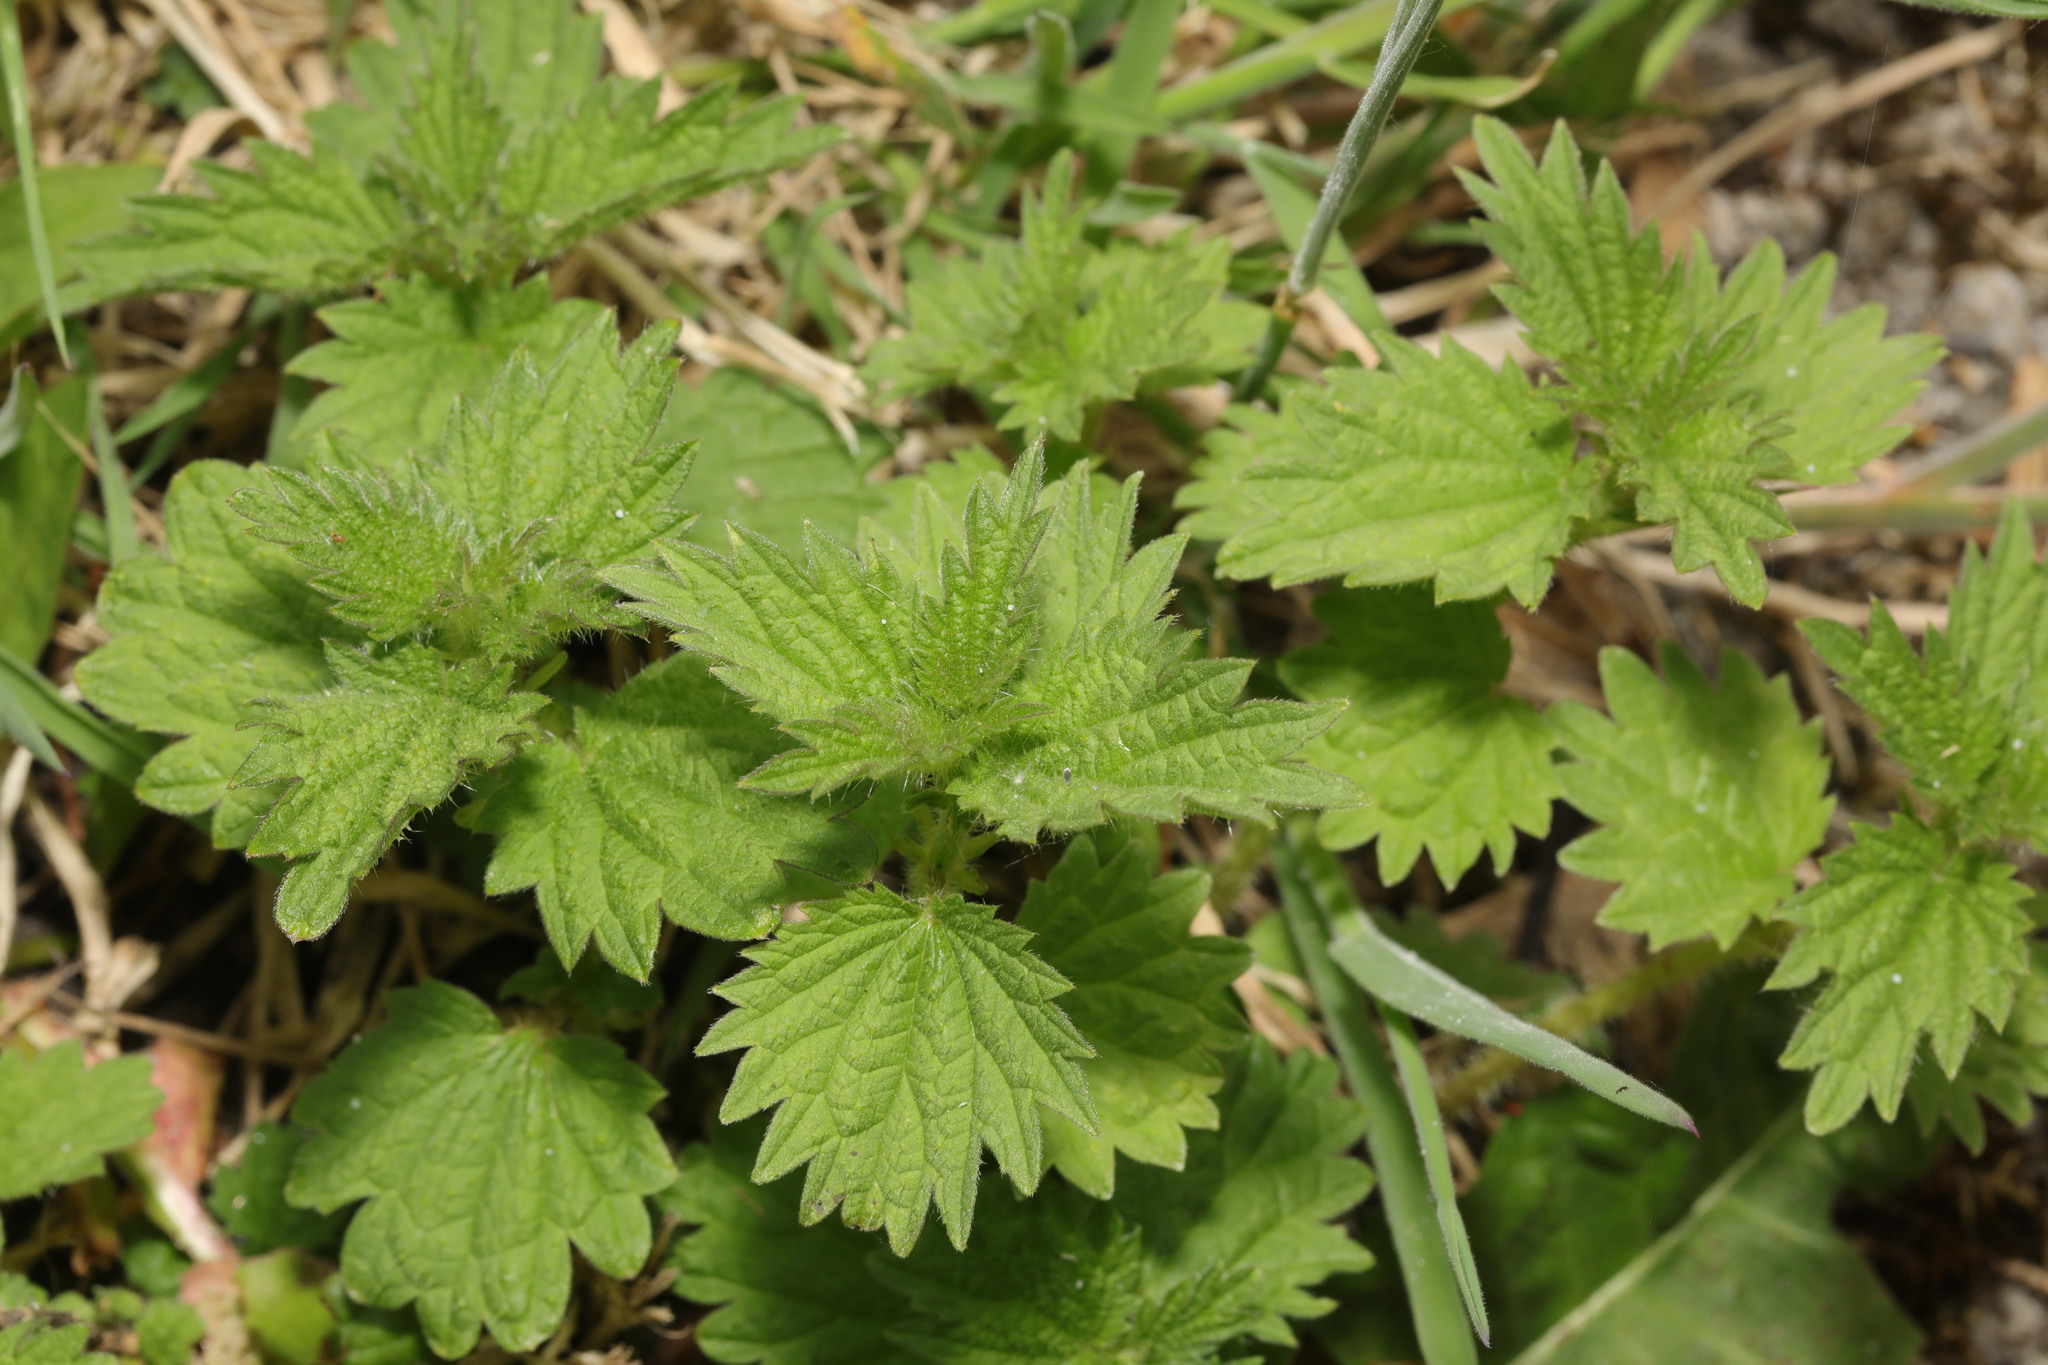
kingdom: Plantae
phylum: Tracheophyta
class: Magnoliopsida
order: Rosales
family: Urticaceae
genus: Urtica
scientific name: Urtica dioica
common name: Common nettle
